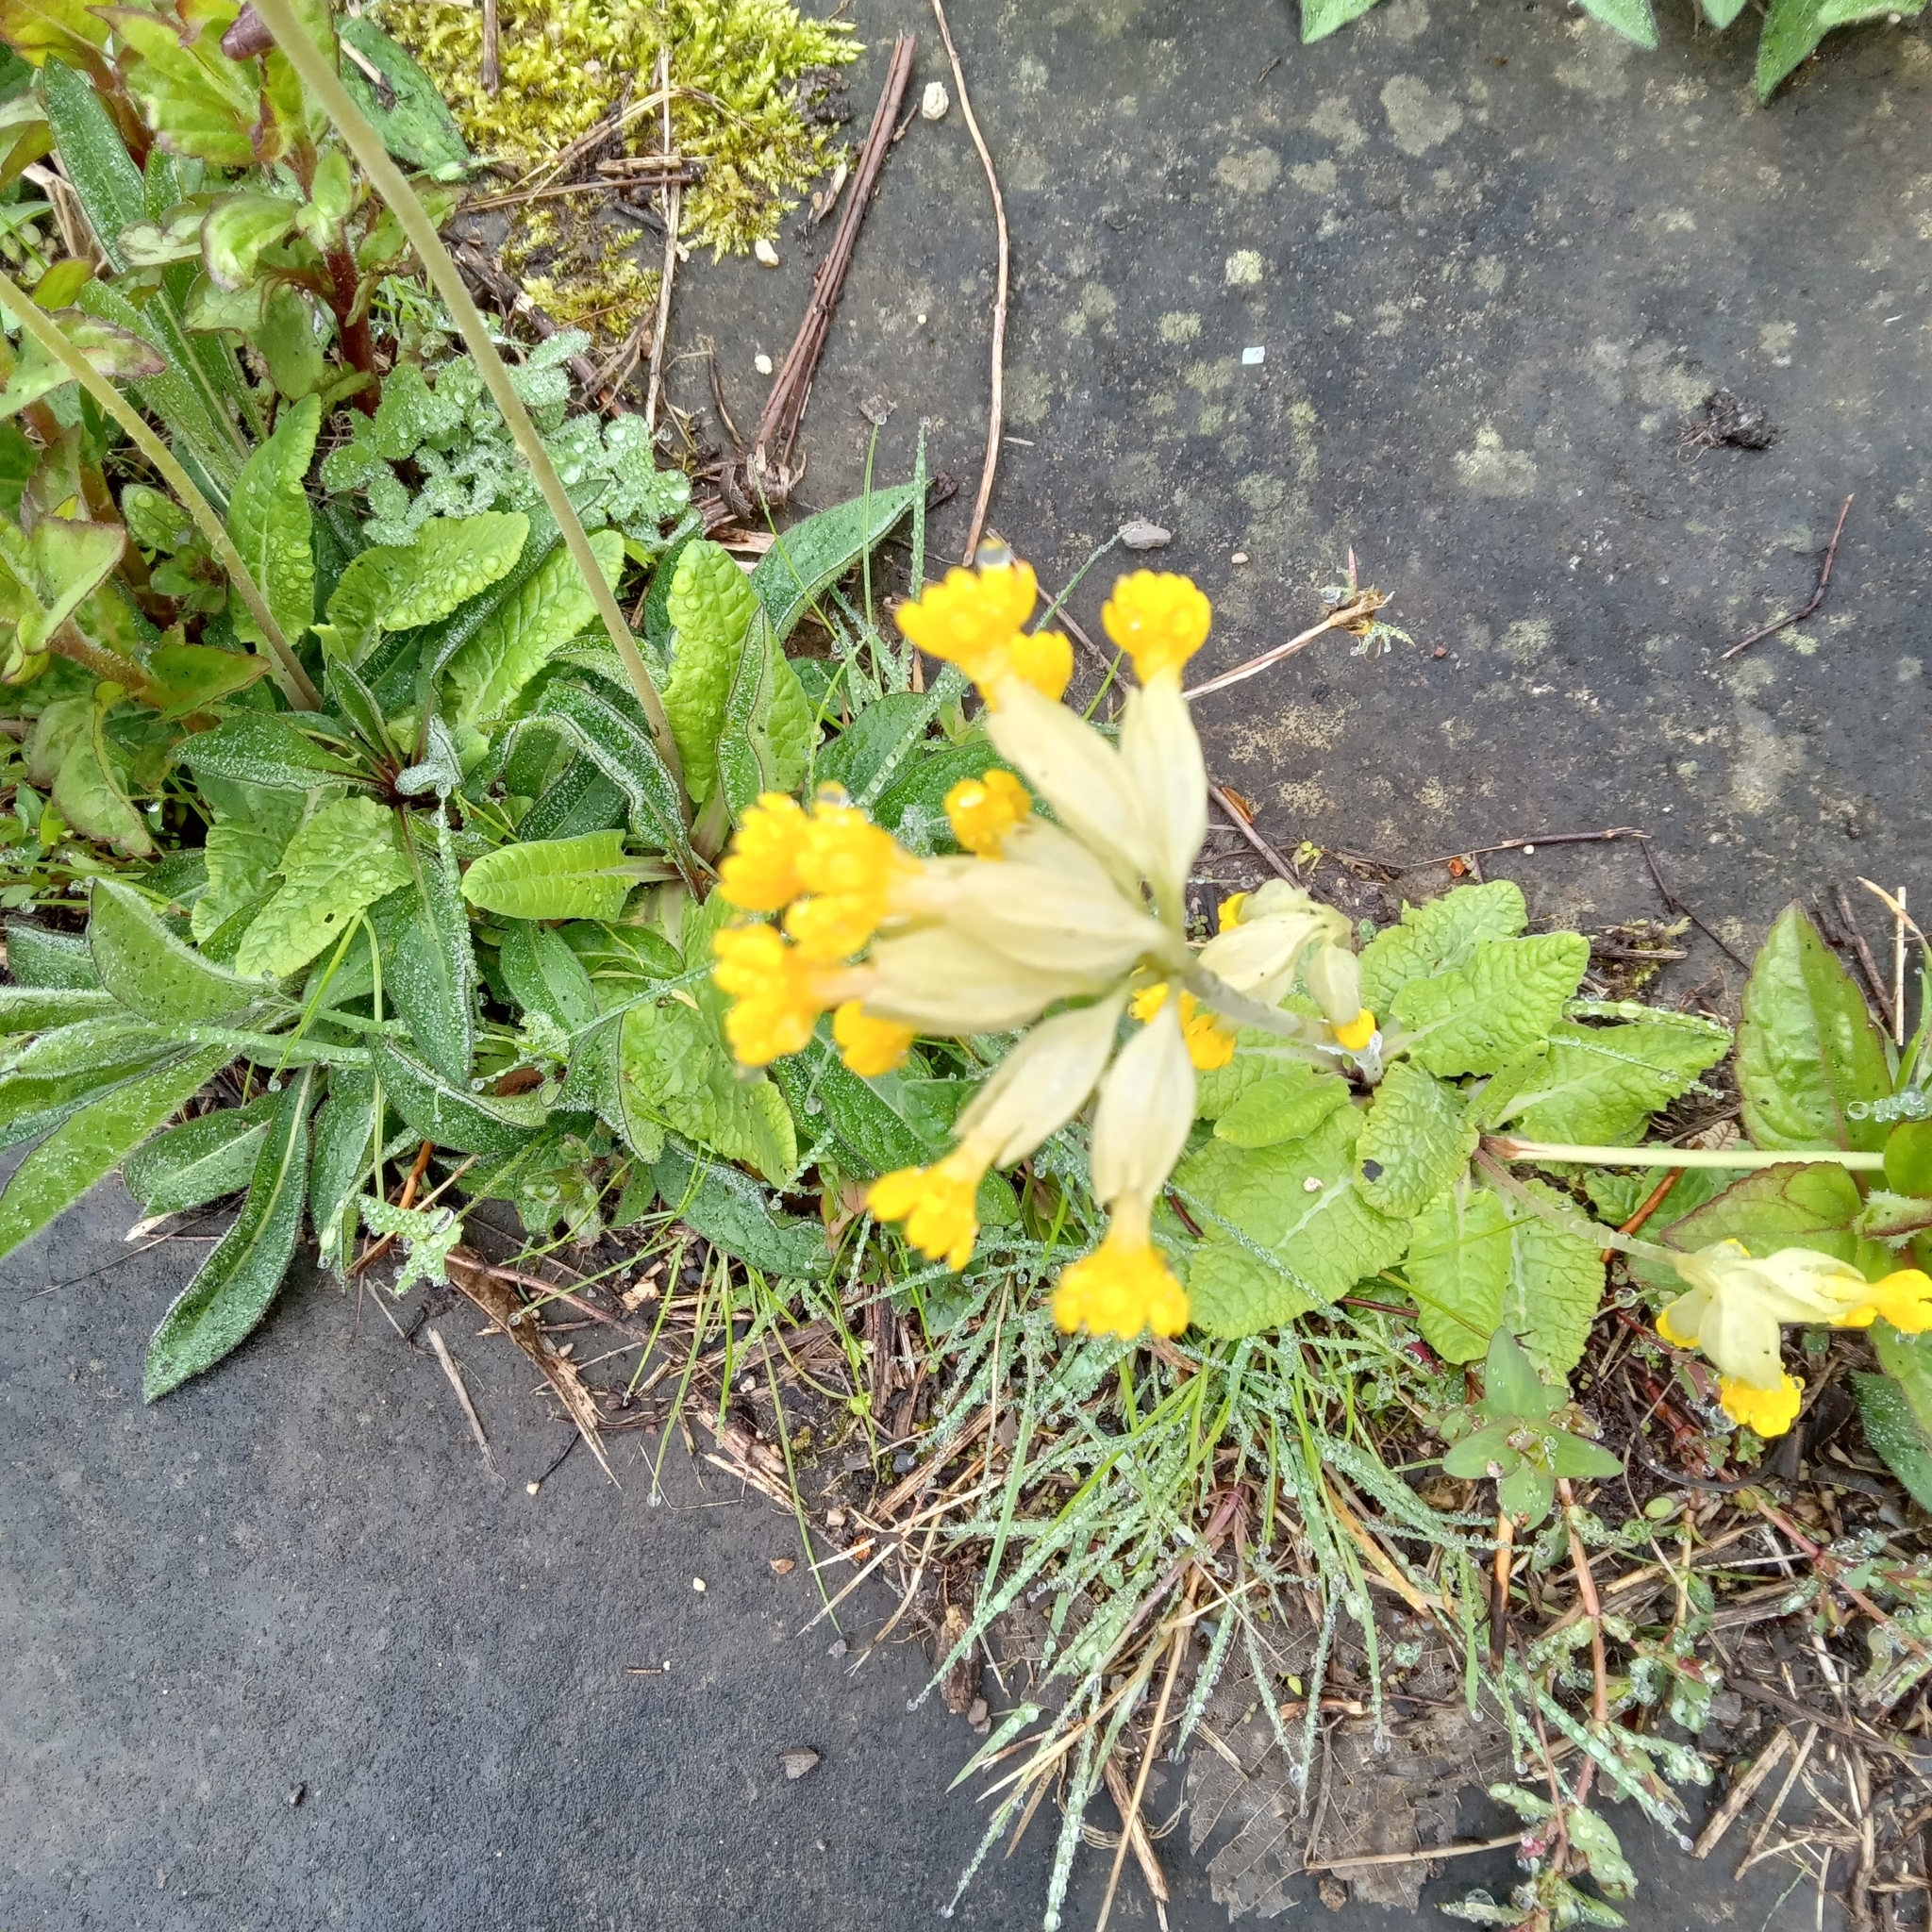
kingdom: Plantae
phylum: Tracheophyta
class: Magnoliopsida
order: Ericales
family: Primulaceae
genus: Primula
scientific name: Primula veris
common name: Cowslip
